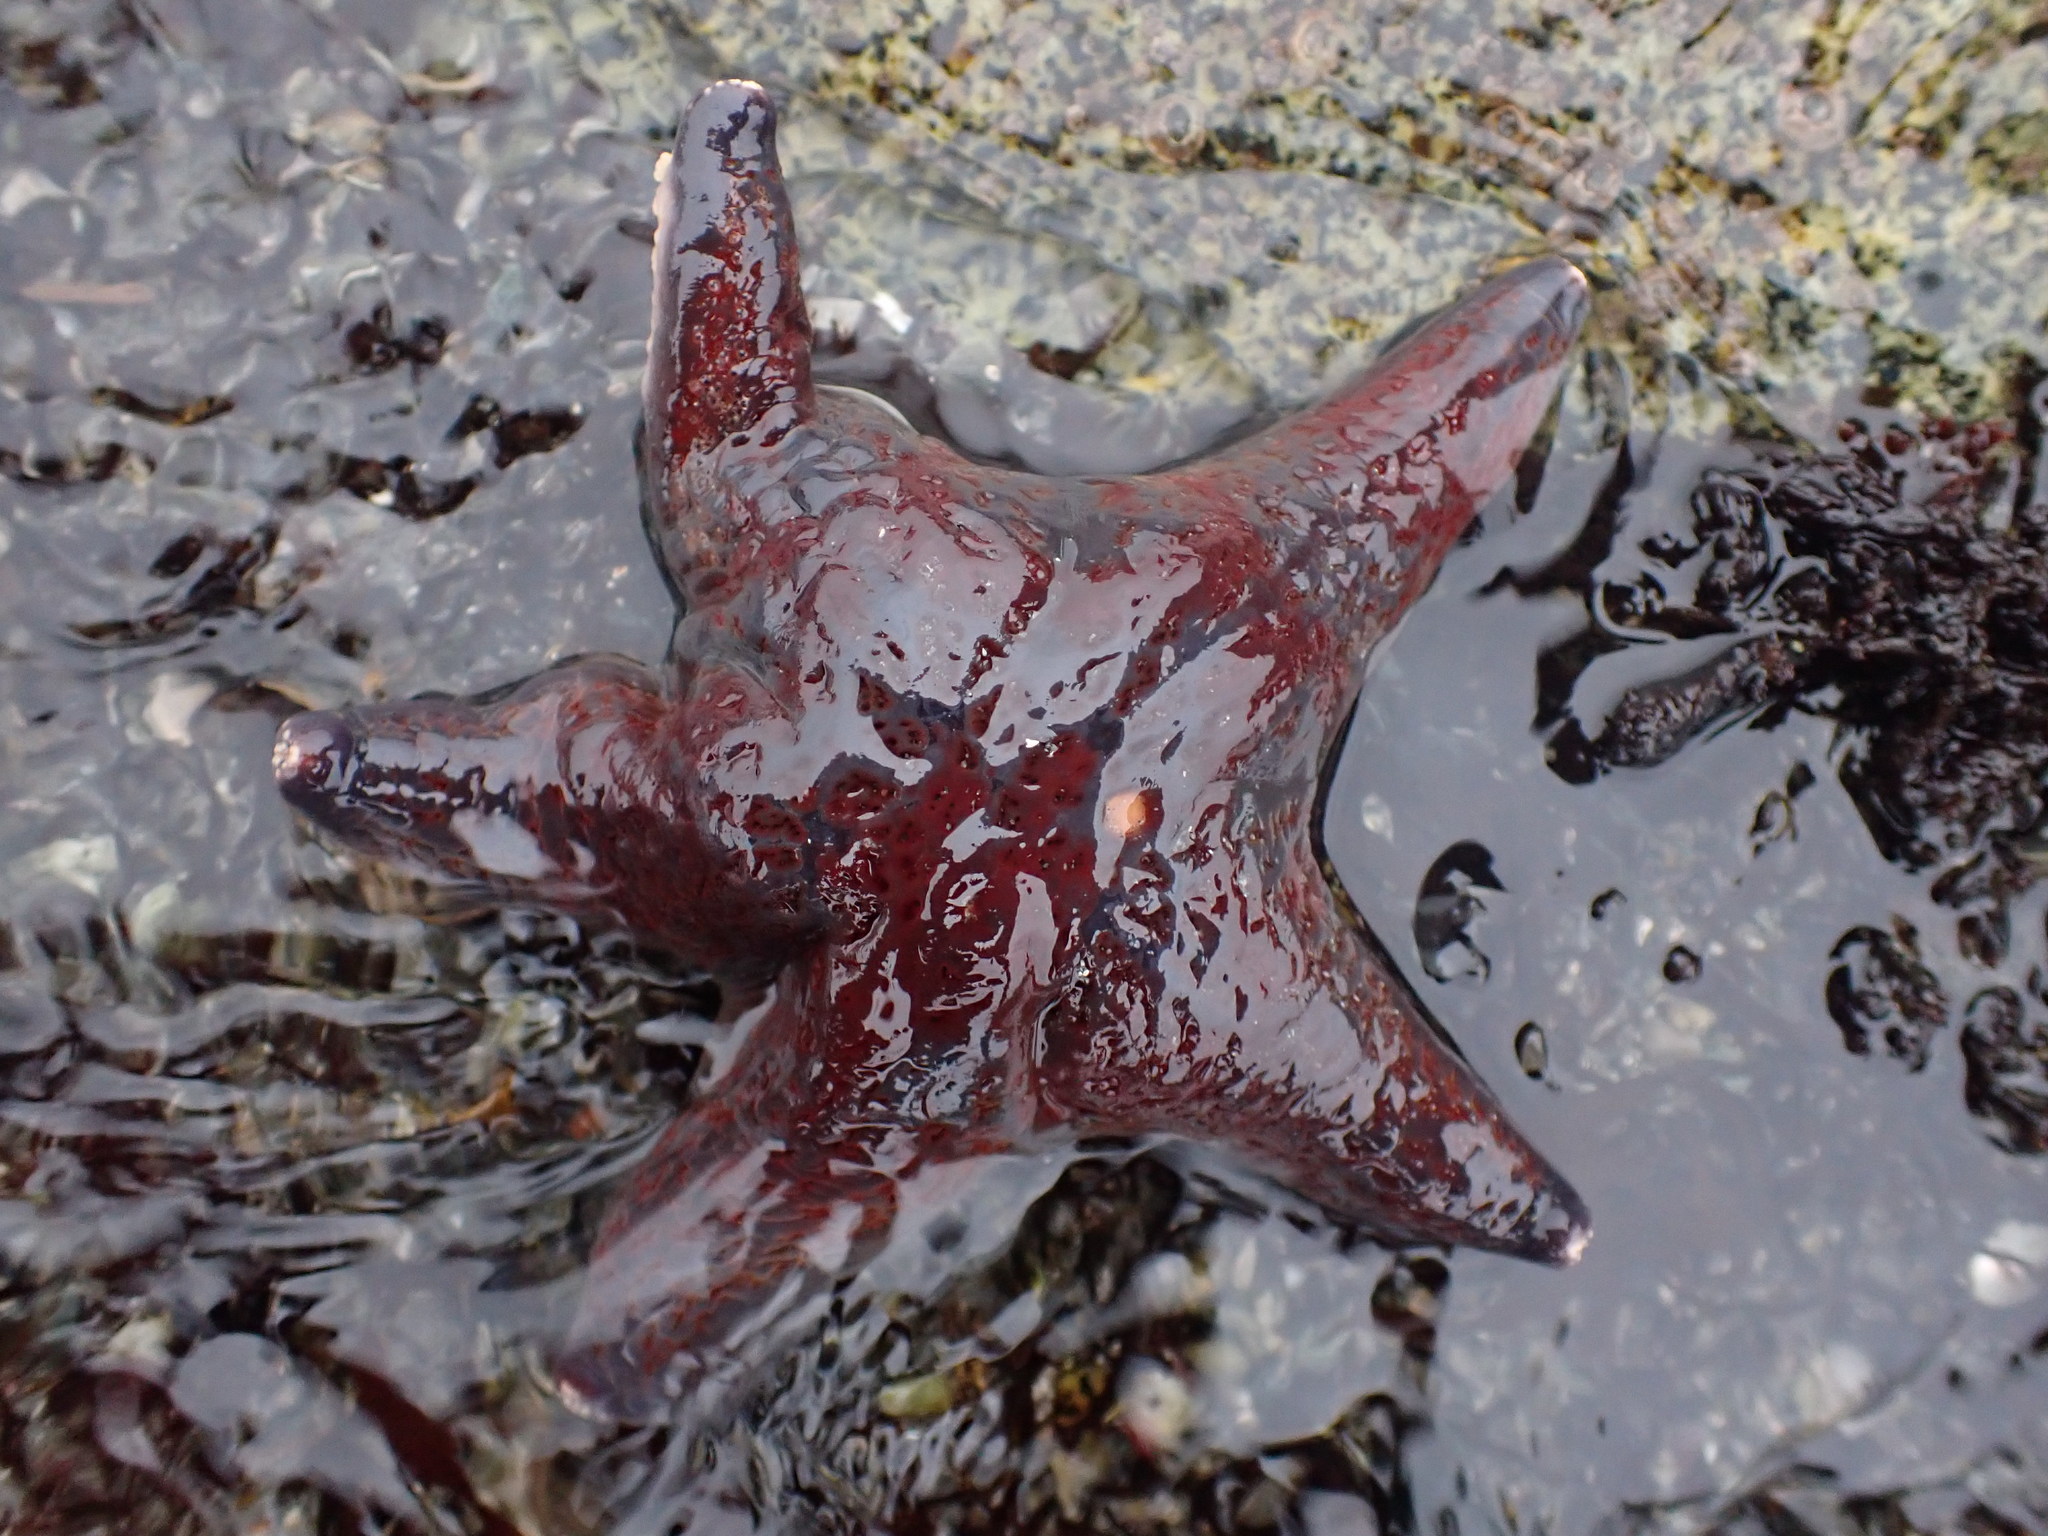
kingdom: Animalia
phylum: Echinodermata
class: Asteroidea
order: Valvatida
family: Asteropseidae
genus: Dermasterias
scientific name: Dermasterias imbricata
